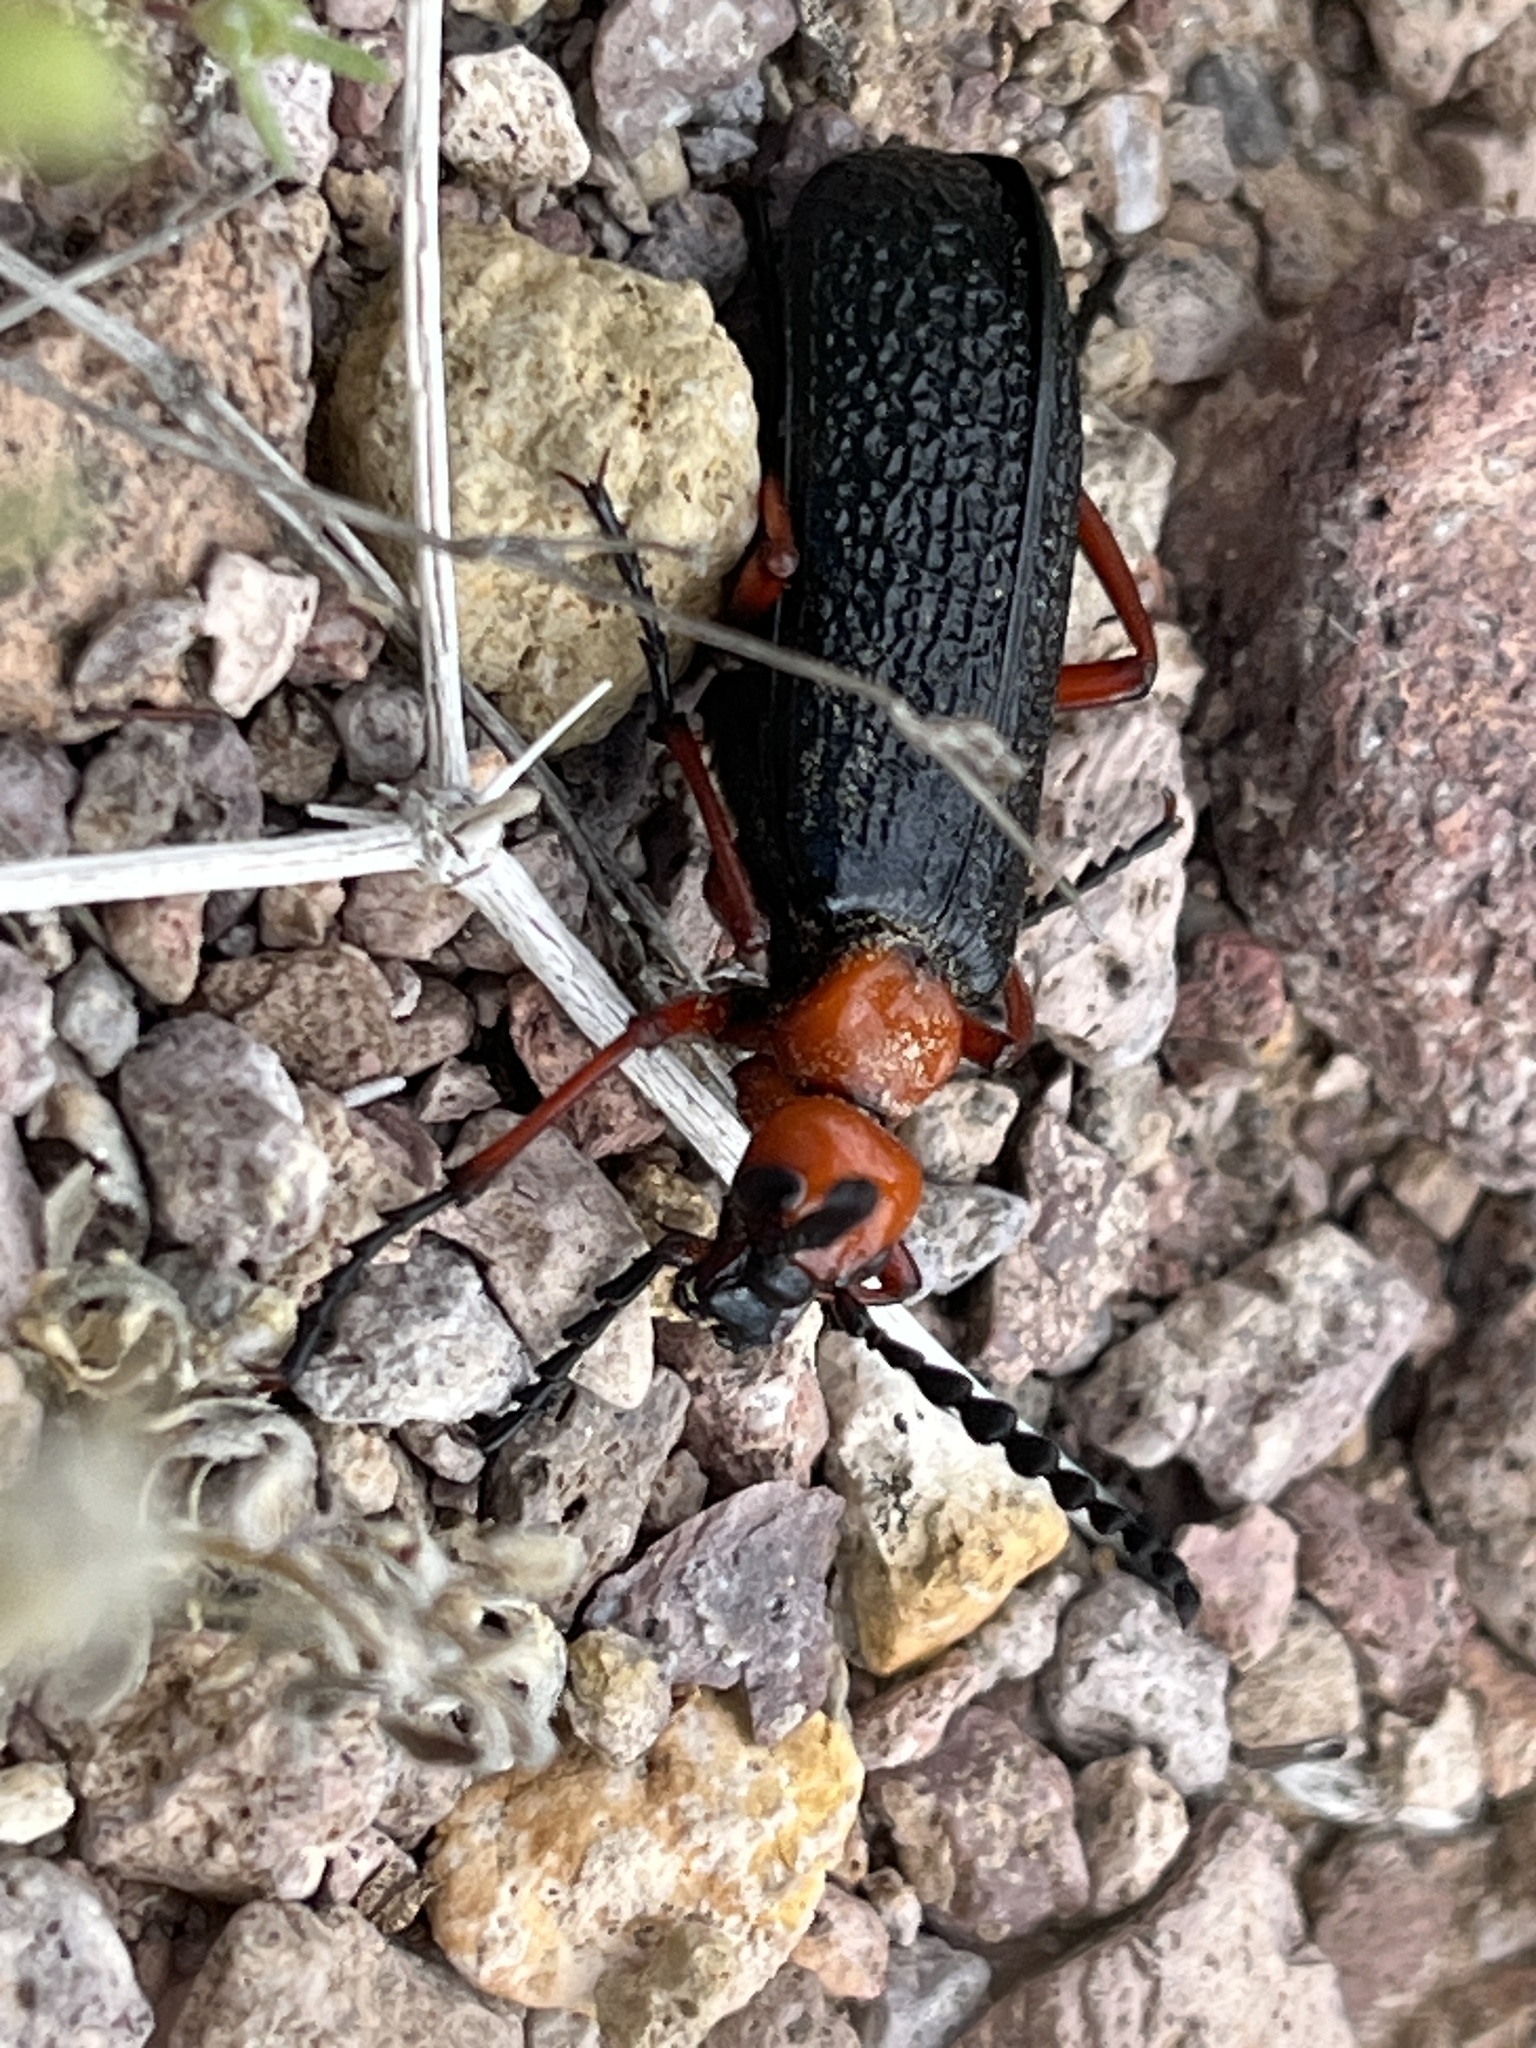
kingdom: Animalia
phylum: Arthropoda
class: Insecta
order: Coleoptera
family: Meloidae
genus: Lytta
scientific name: Lytta magister
